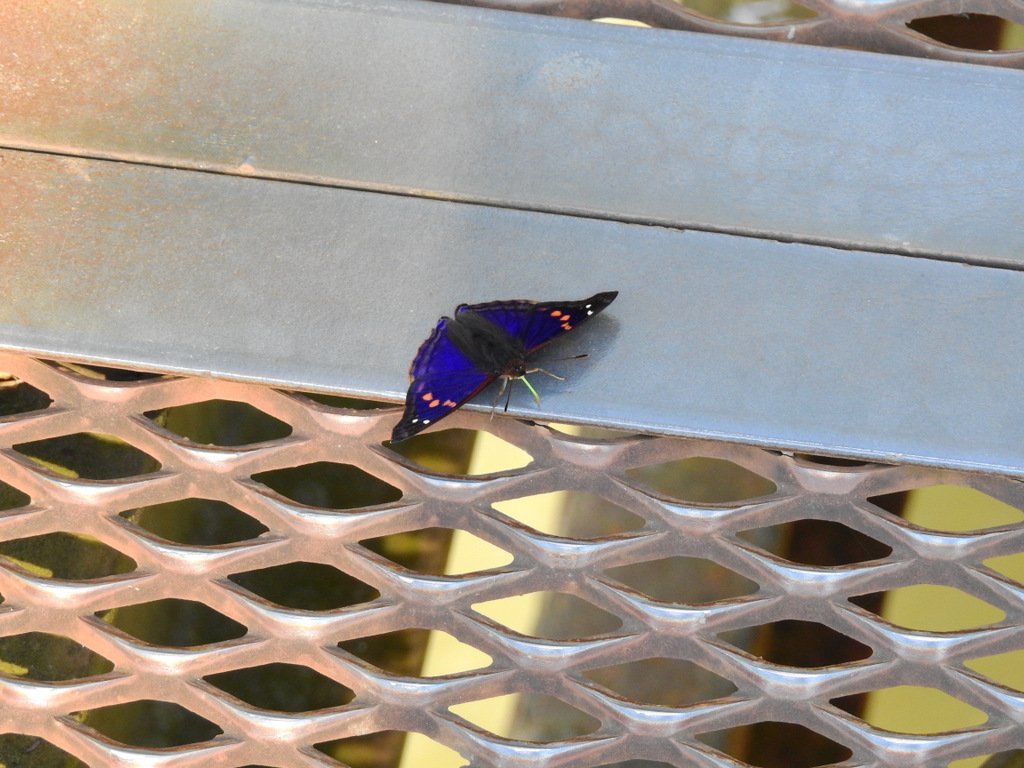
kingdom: Animalia
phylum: Arthropoda
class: Insecta
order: Lepidoptera
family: Nymphalidae
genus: Doxocopa
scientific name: Doxocopa agathina
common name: Agathina emperor
